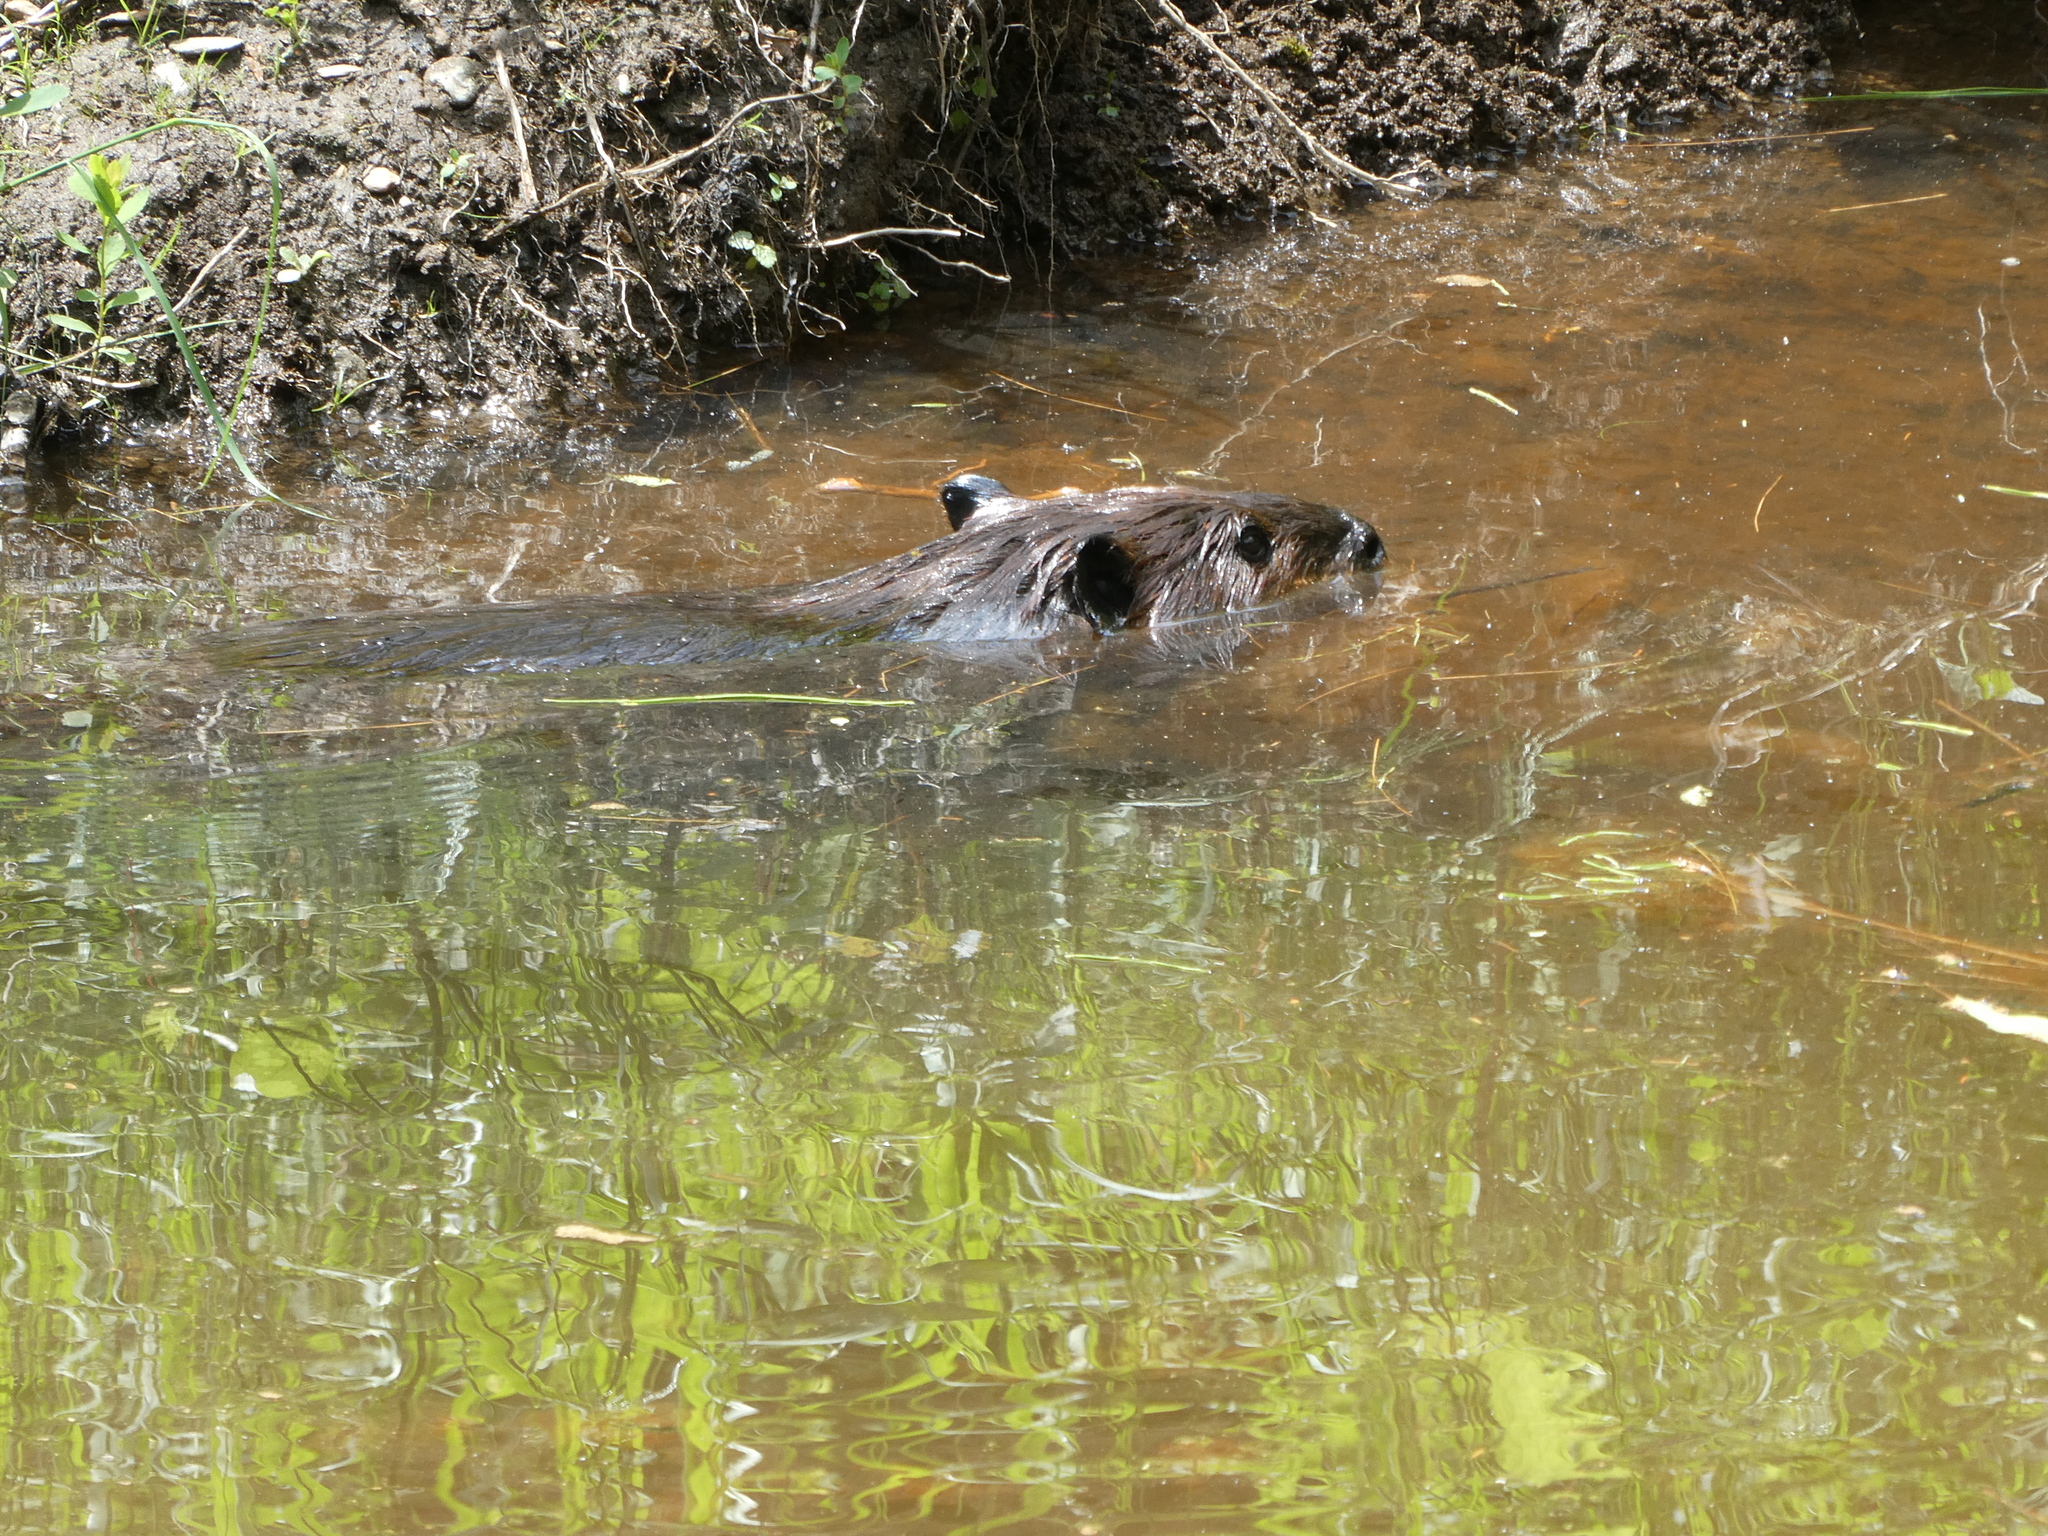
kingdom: Animalia
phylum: Chordata
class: Mammalia
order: Rodentia
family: Castoridae
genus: Castor
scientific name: Castor canadensis
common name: American beaver
